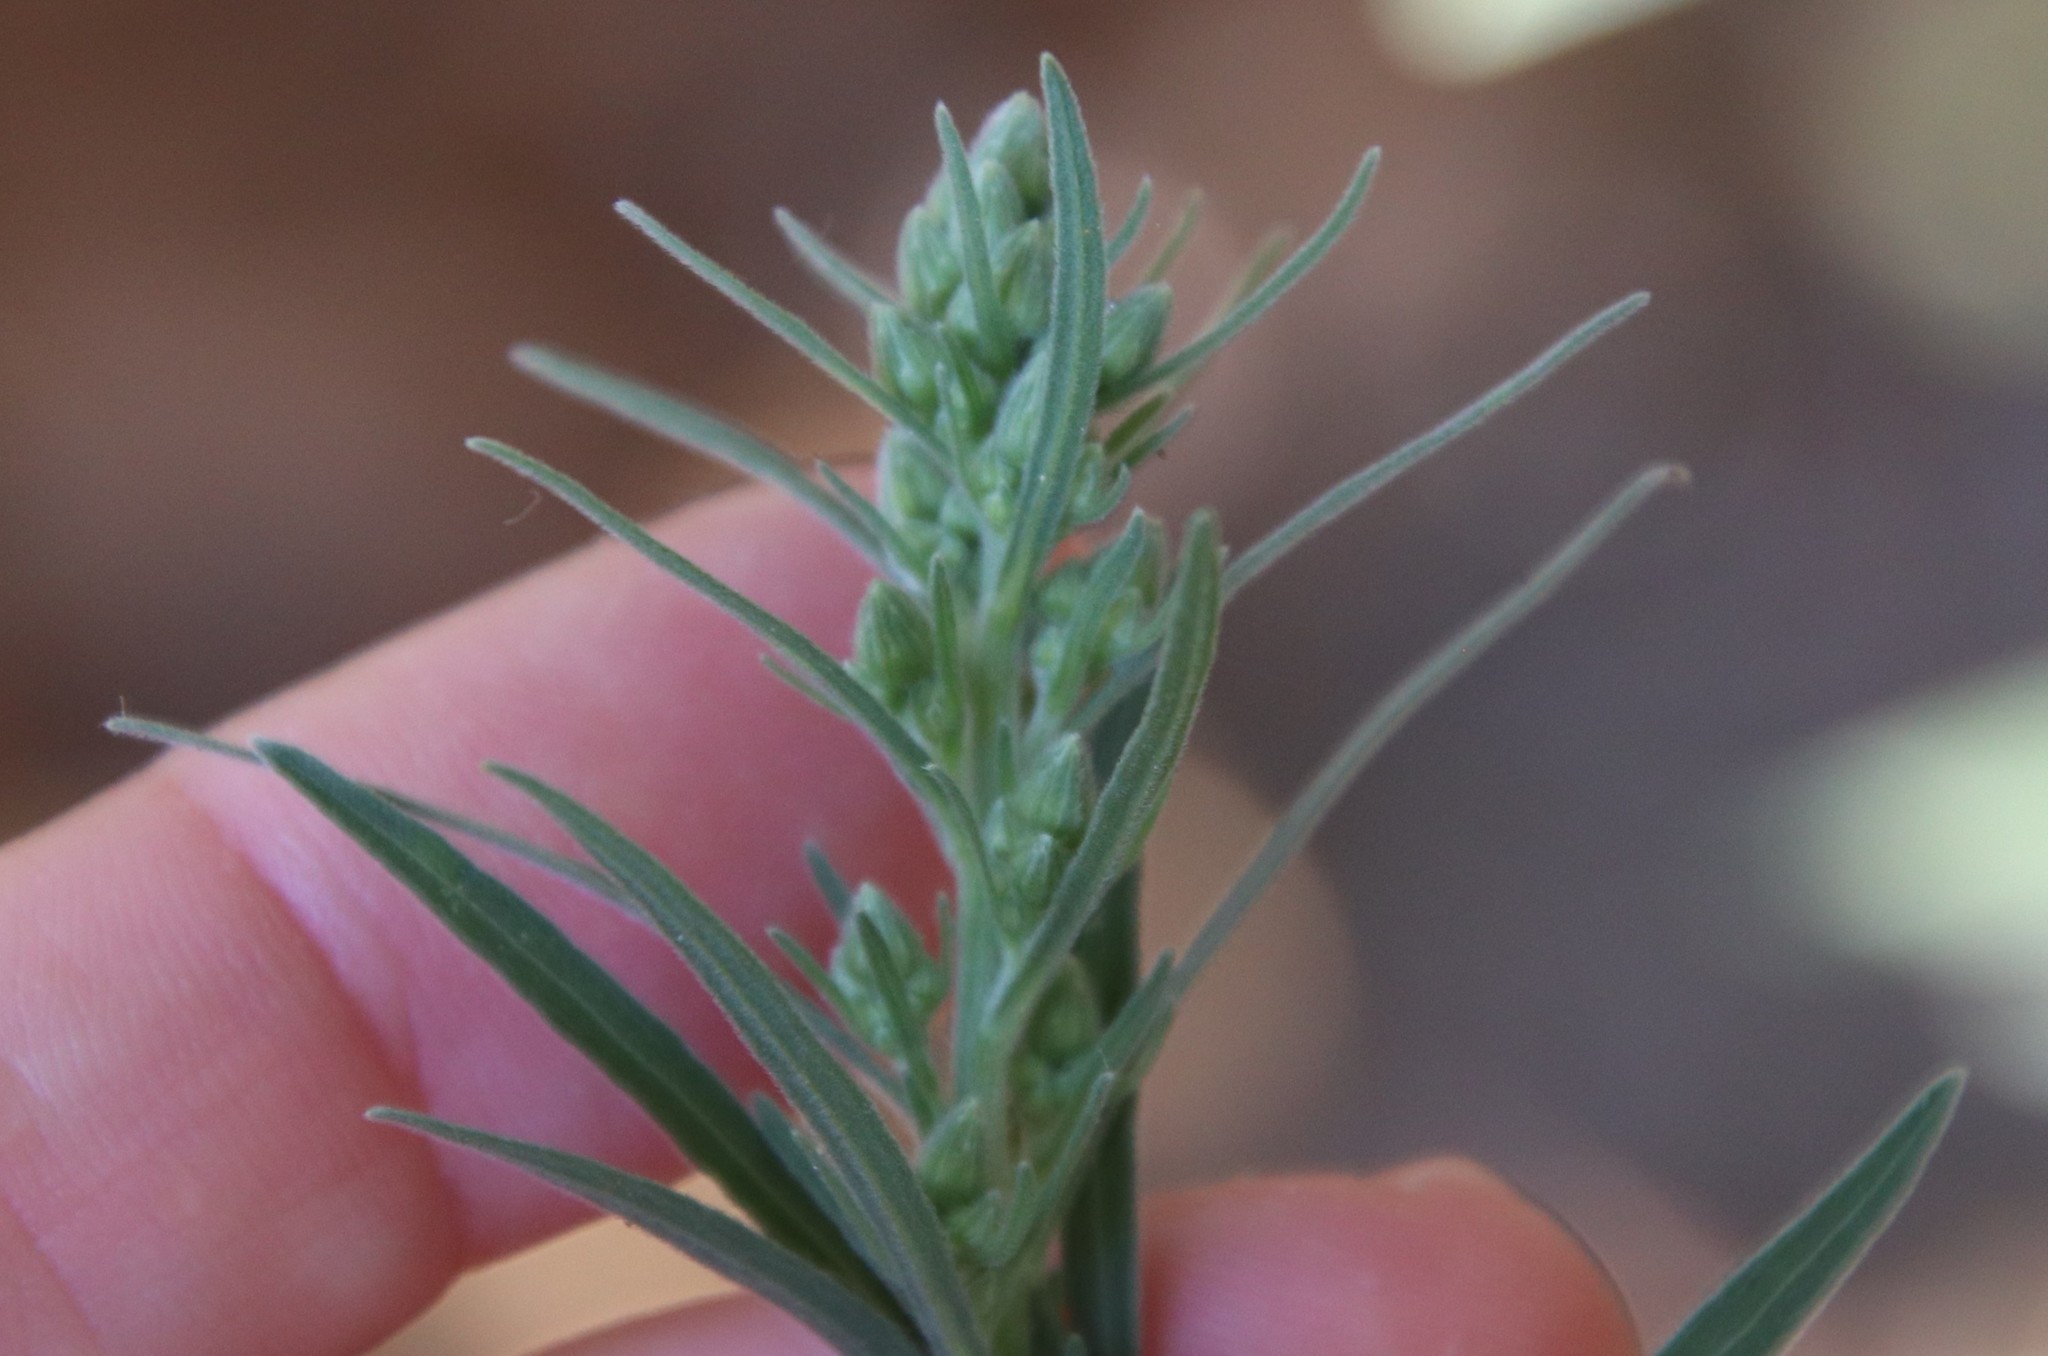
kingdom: Plantae
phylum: Tracheophyta
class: Magnoliopsida
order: Asterales
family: Asteraceae
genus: Artemisia
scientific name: Artemisia ludoviciana
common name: Western mugwort
